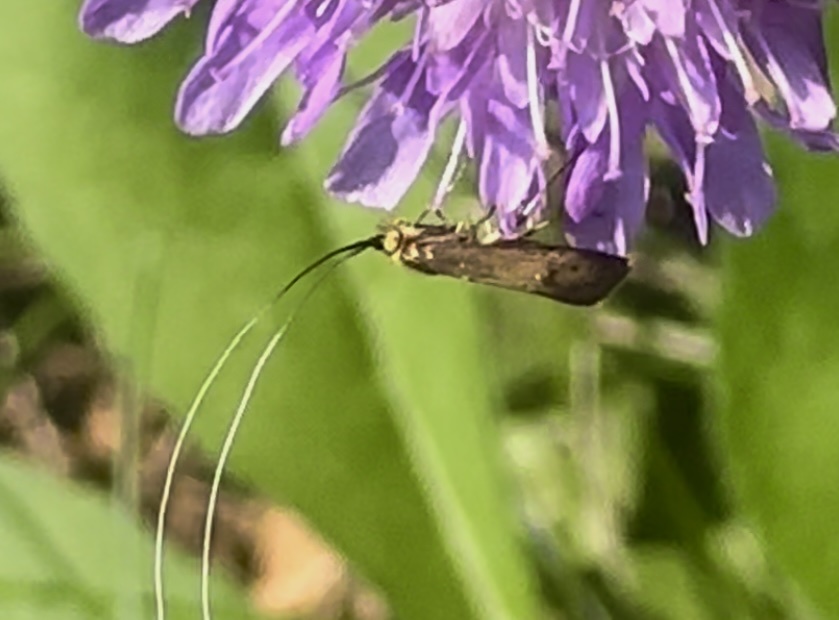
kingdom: Animalia
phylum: Arthropoda
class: Insecta
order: Lepidoptera
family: Adelidae
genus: Nemophora
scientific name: Nemophora metallica
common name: Brassy long-horn
